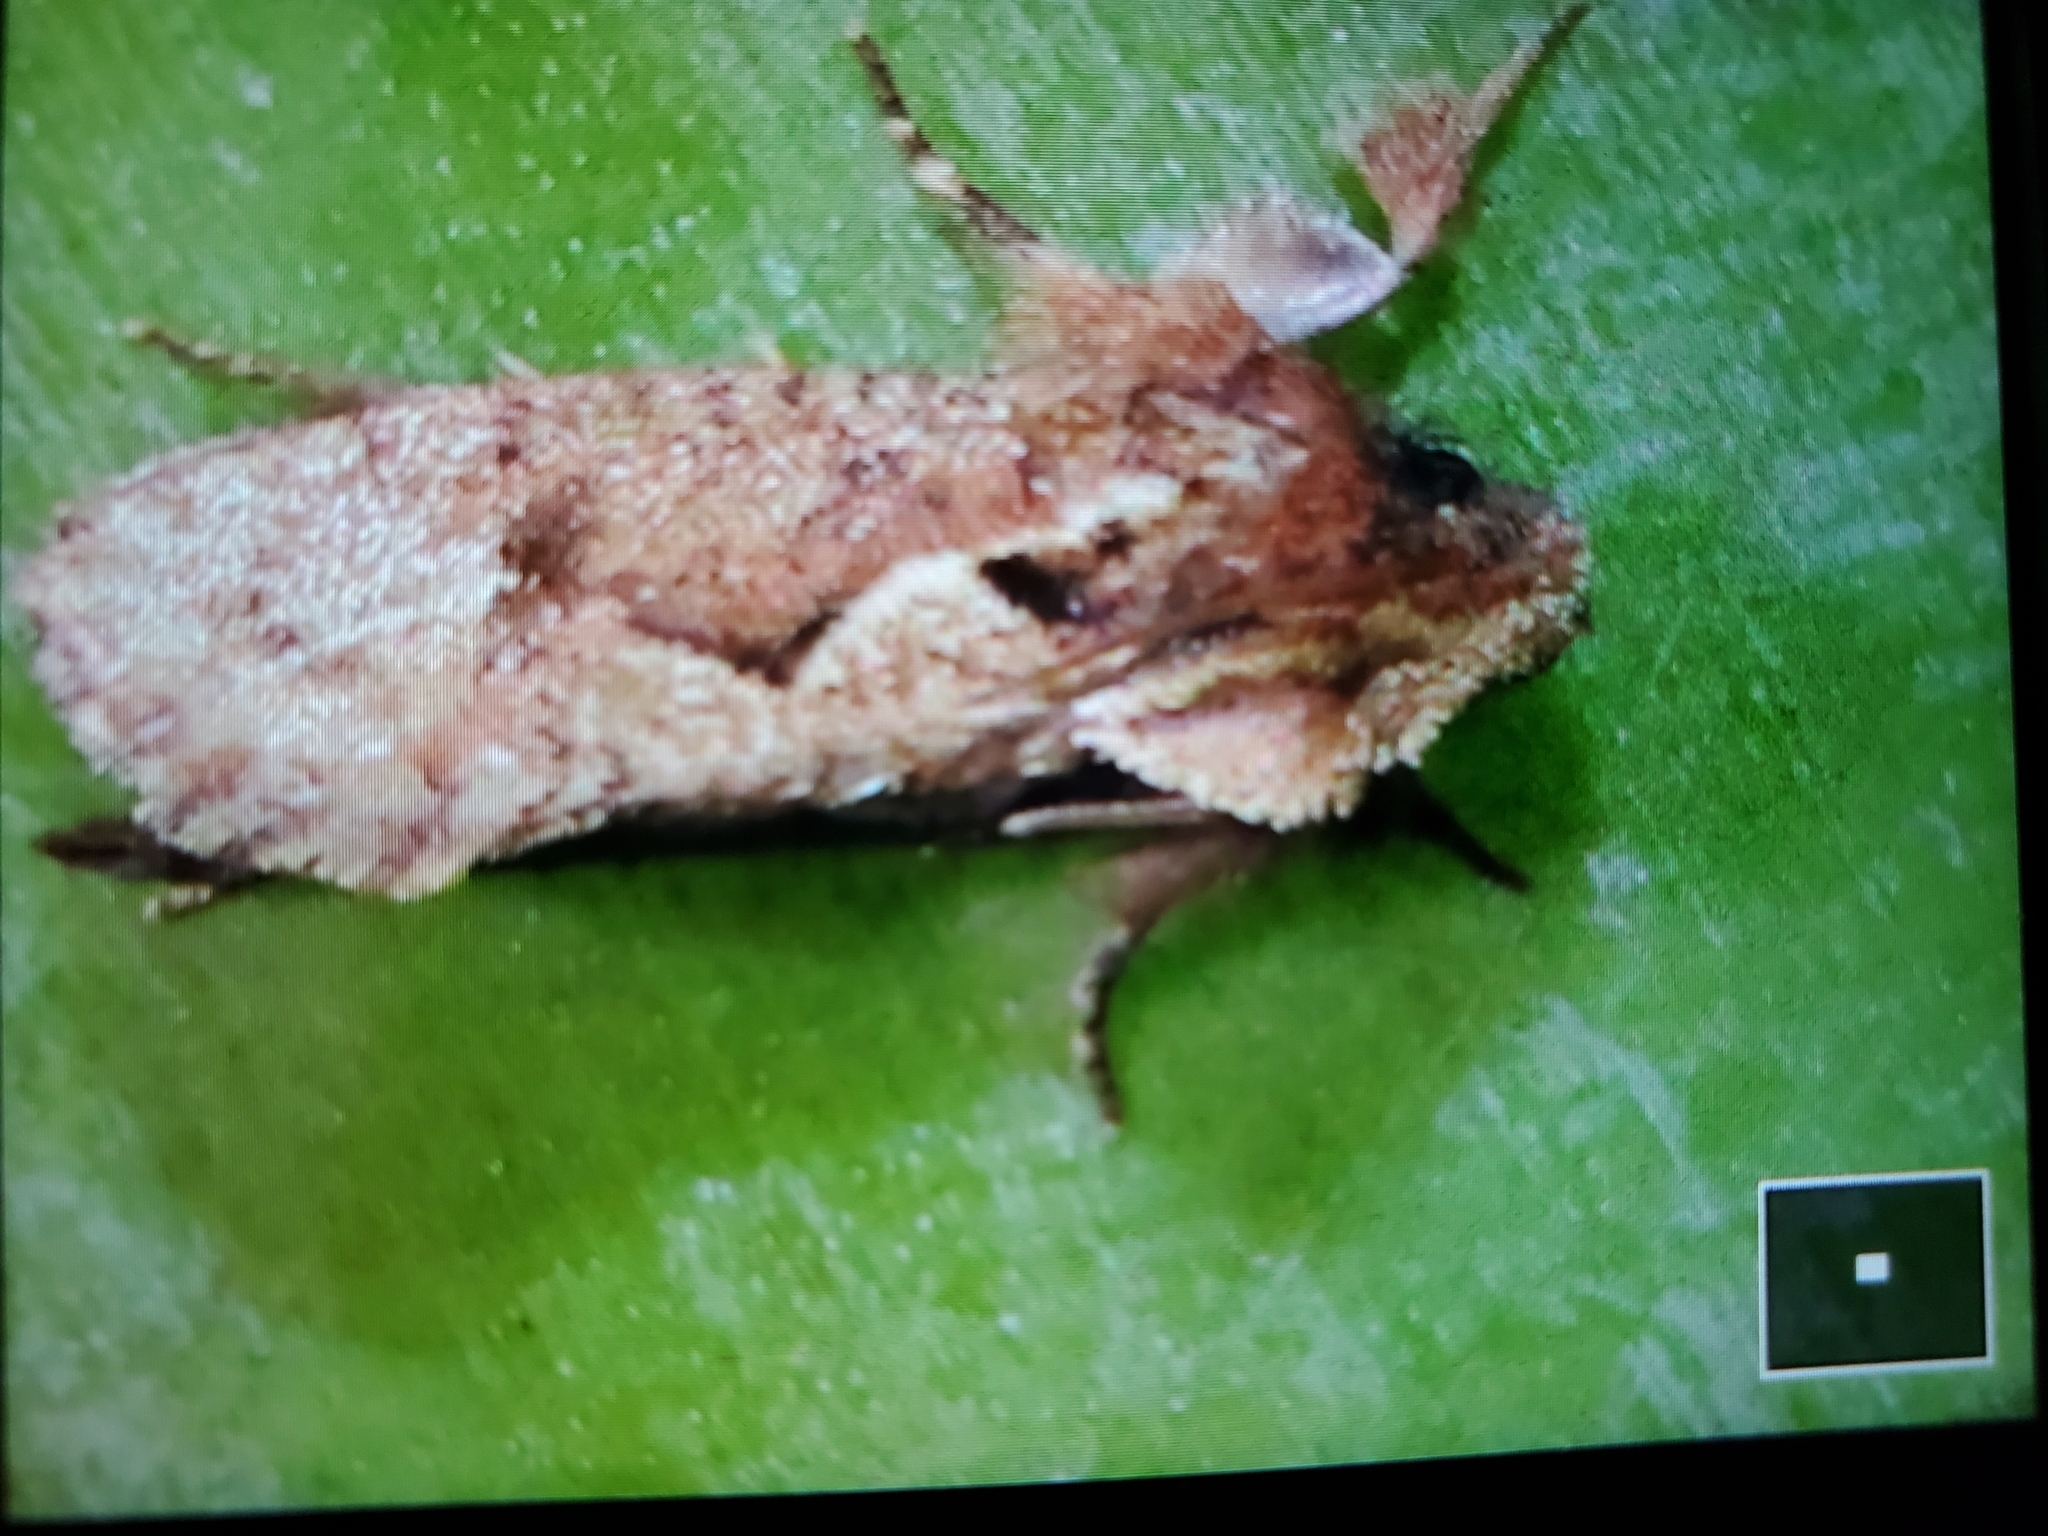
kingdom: Animalia
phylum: Arthropoda
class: Insecta
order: Lepidoptera
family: Tineidae
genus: Acrolophus
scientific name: Acrolophus walsinghami
